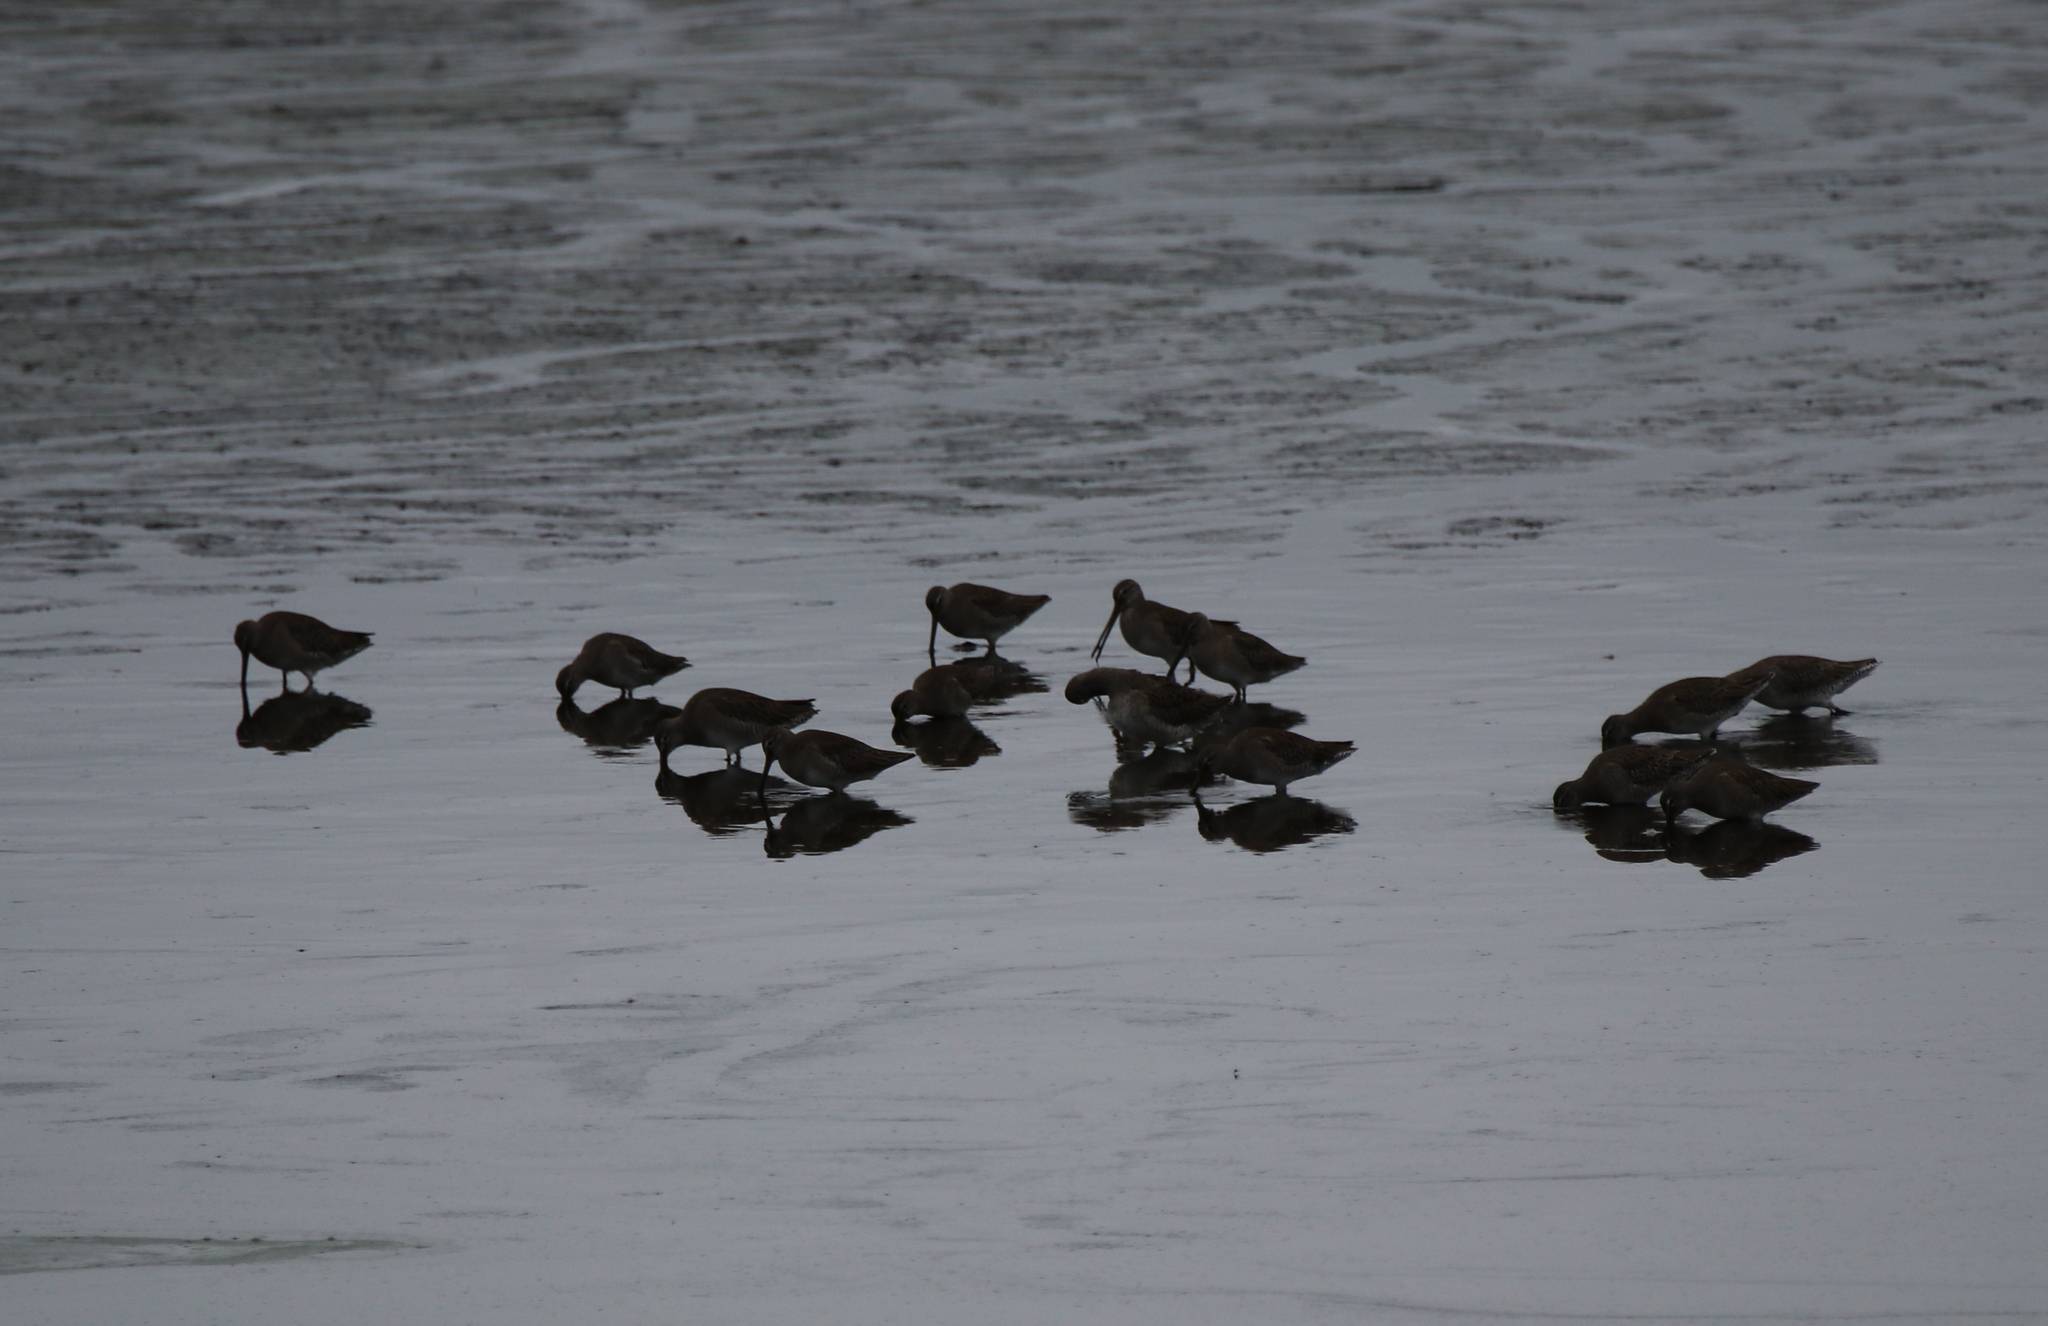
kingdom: Animalia
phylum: Chordata
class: Aves
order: Charadriiformes
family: Scolopacidae
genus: Limnodromus
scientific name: Limnodromus
